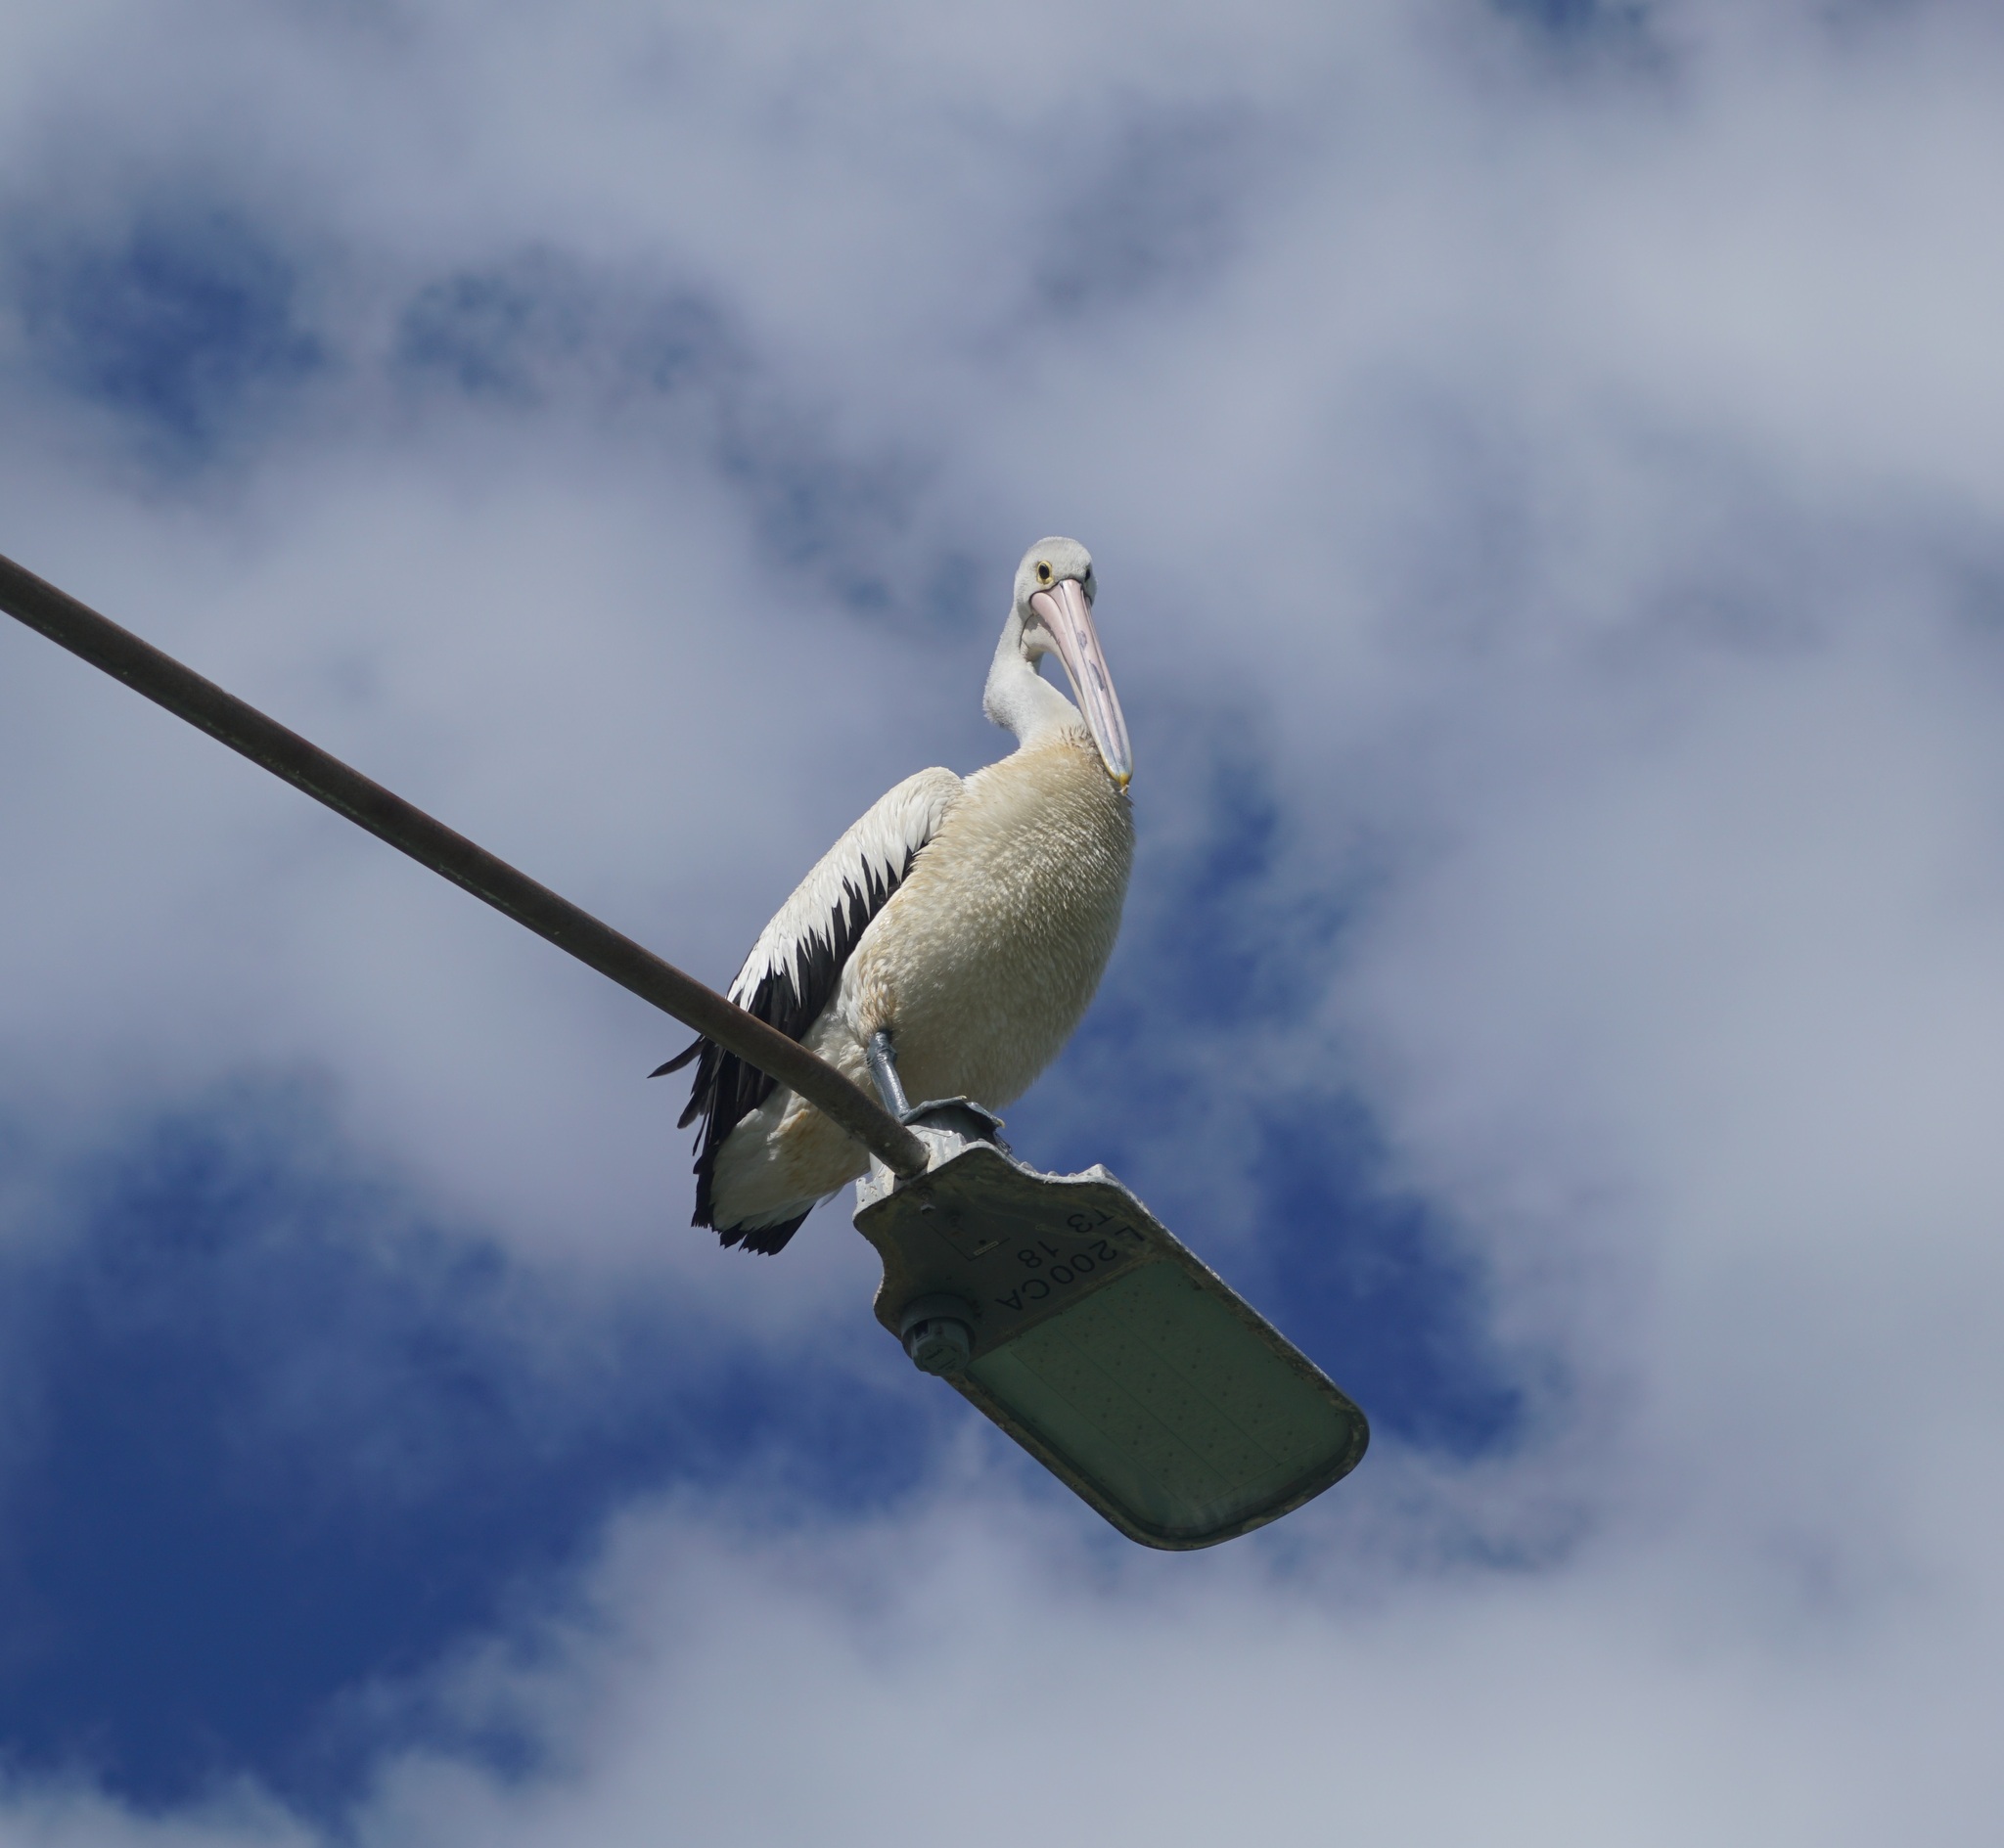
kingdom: Animalia
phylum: Chordata
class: Aves
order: Pelecaniformes
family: Pelecanidae
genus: Pelecanus
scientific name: Pelecanus conspicillatus
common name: Australian pelican
